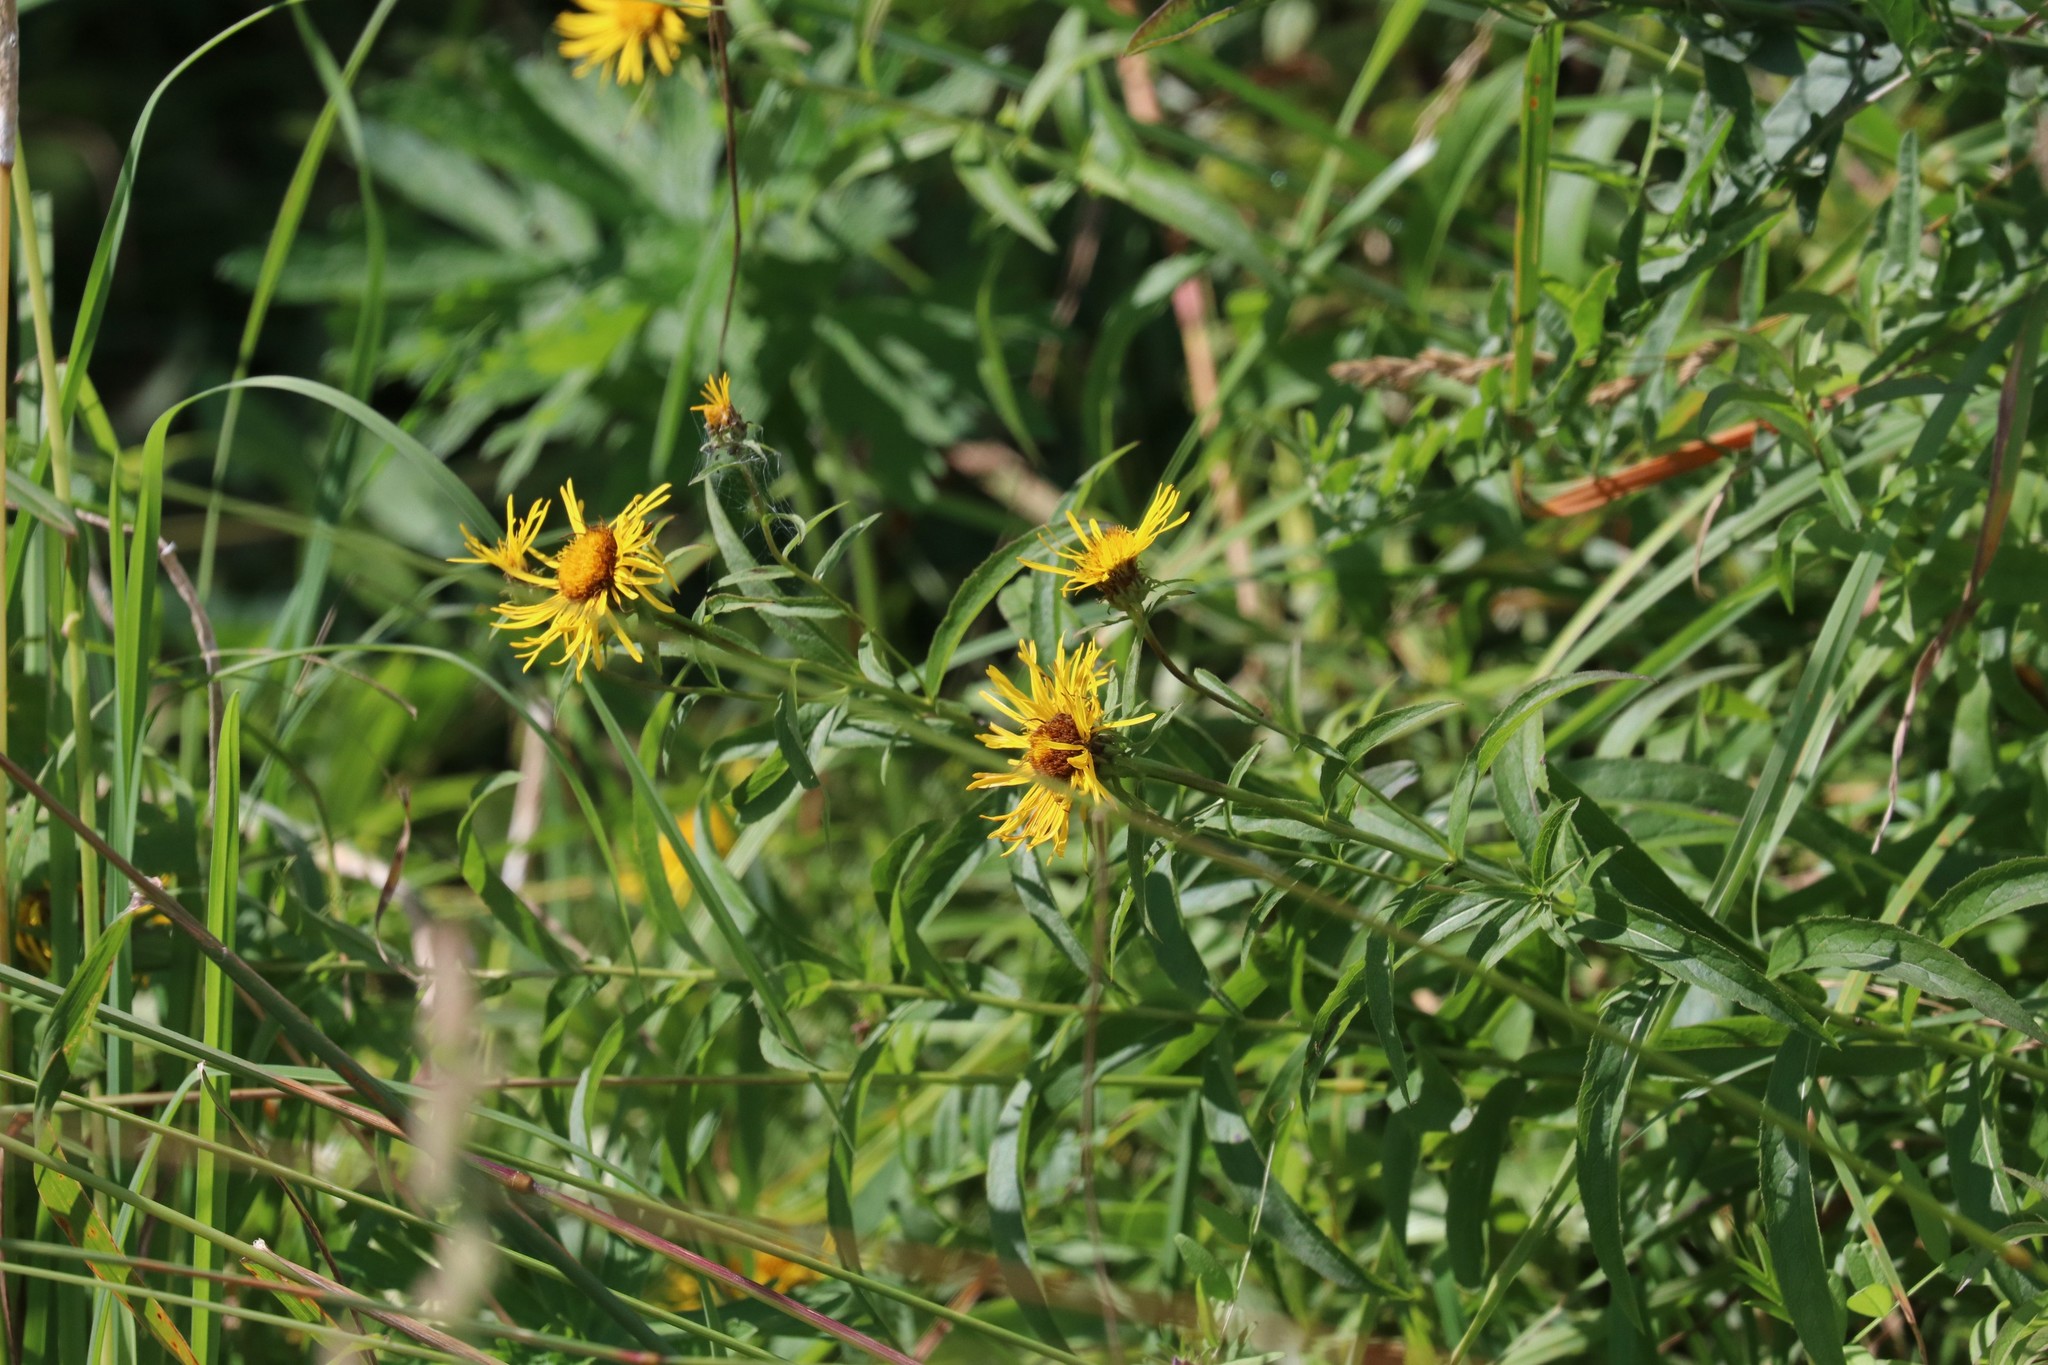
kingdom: Plantae
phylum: Tracheophyta
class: Magnoliopsida
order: Asterales
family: Asteraceae
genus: Pentanema
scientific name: Pentanema salicinum
